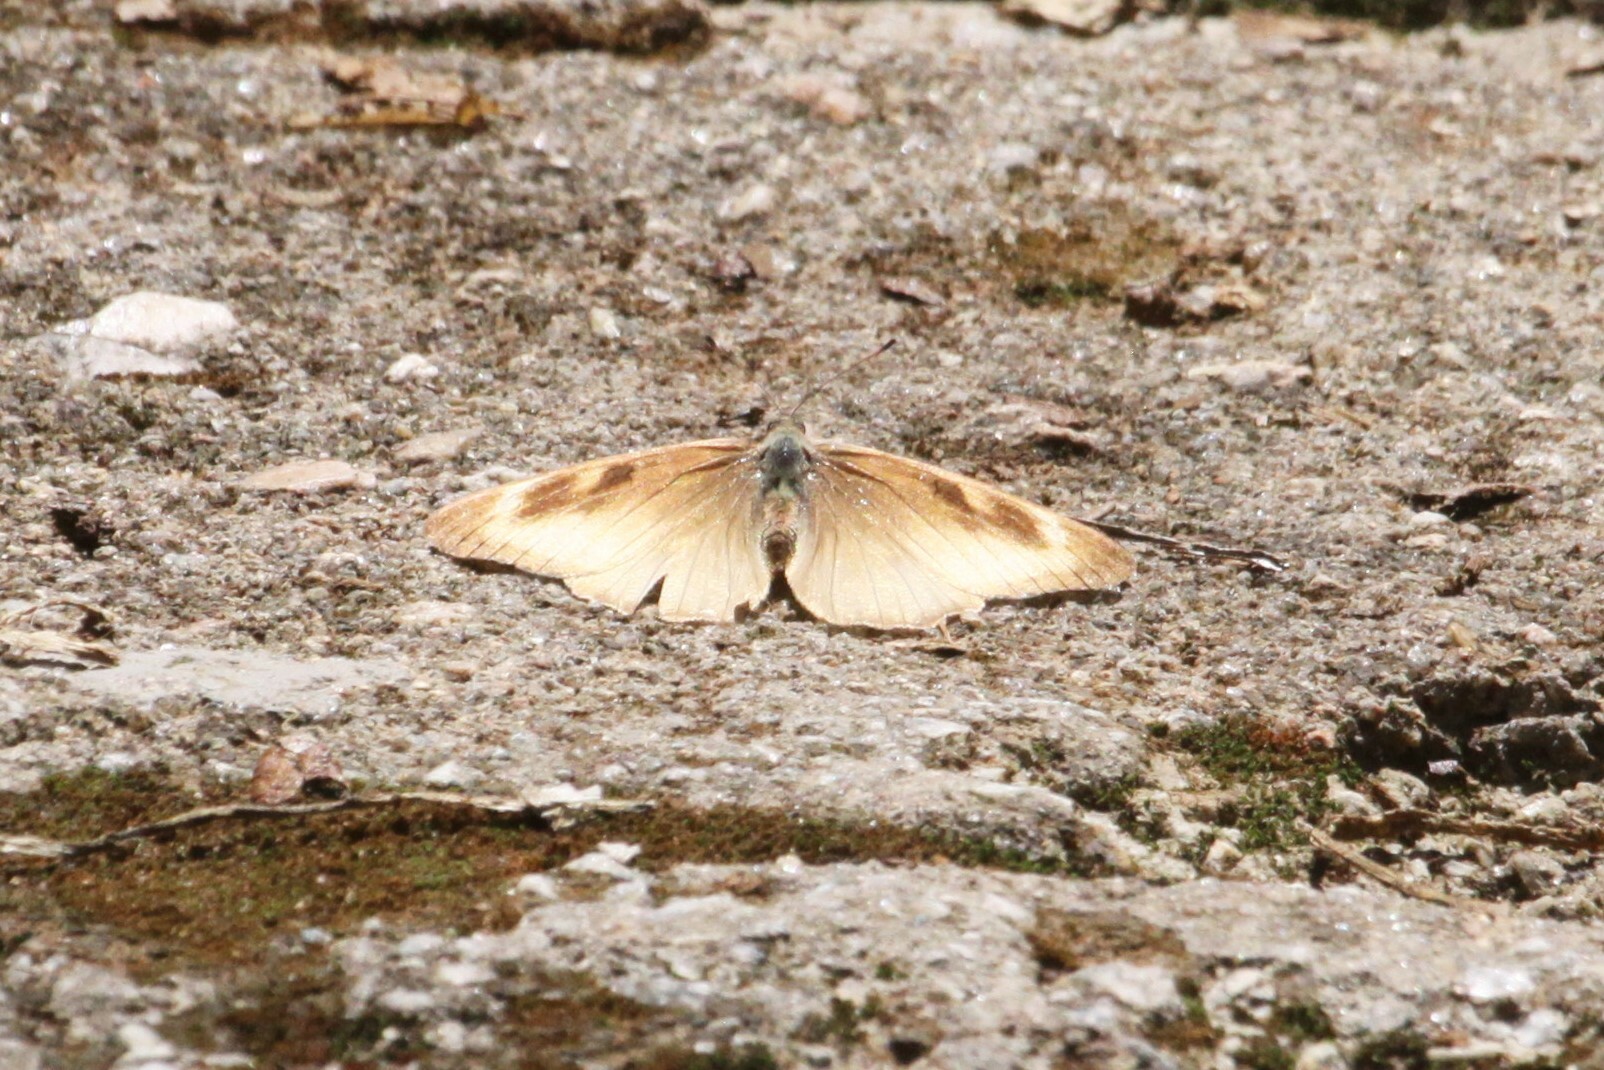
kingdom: Animalia
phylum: Arthropoda
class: Insecta
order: Lepidoptera
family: Nymphalidae
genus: Junonia
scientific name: Junonia hierta
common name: Yellow pansy
